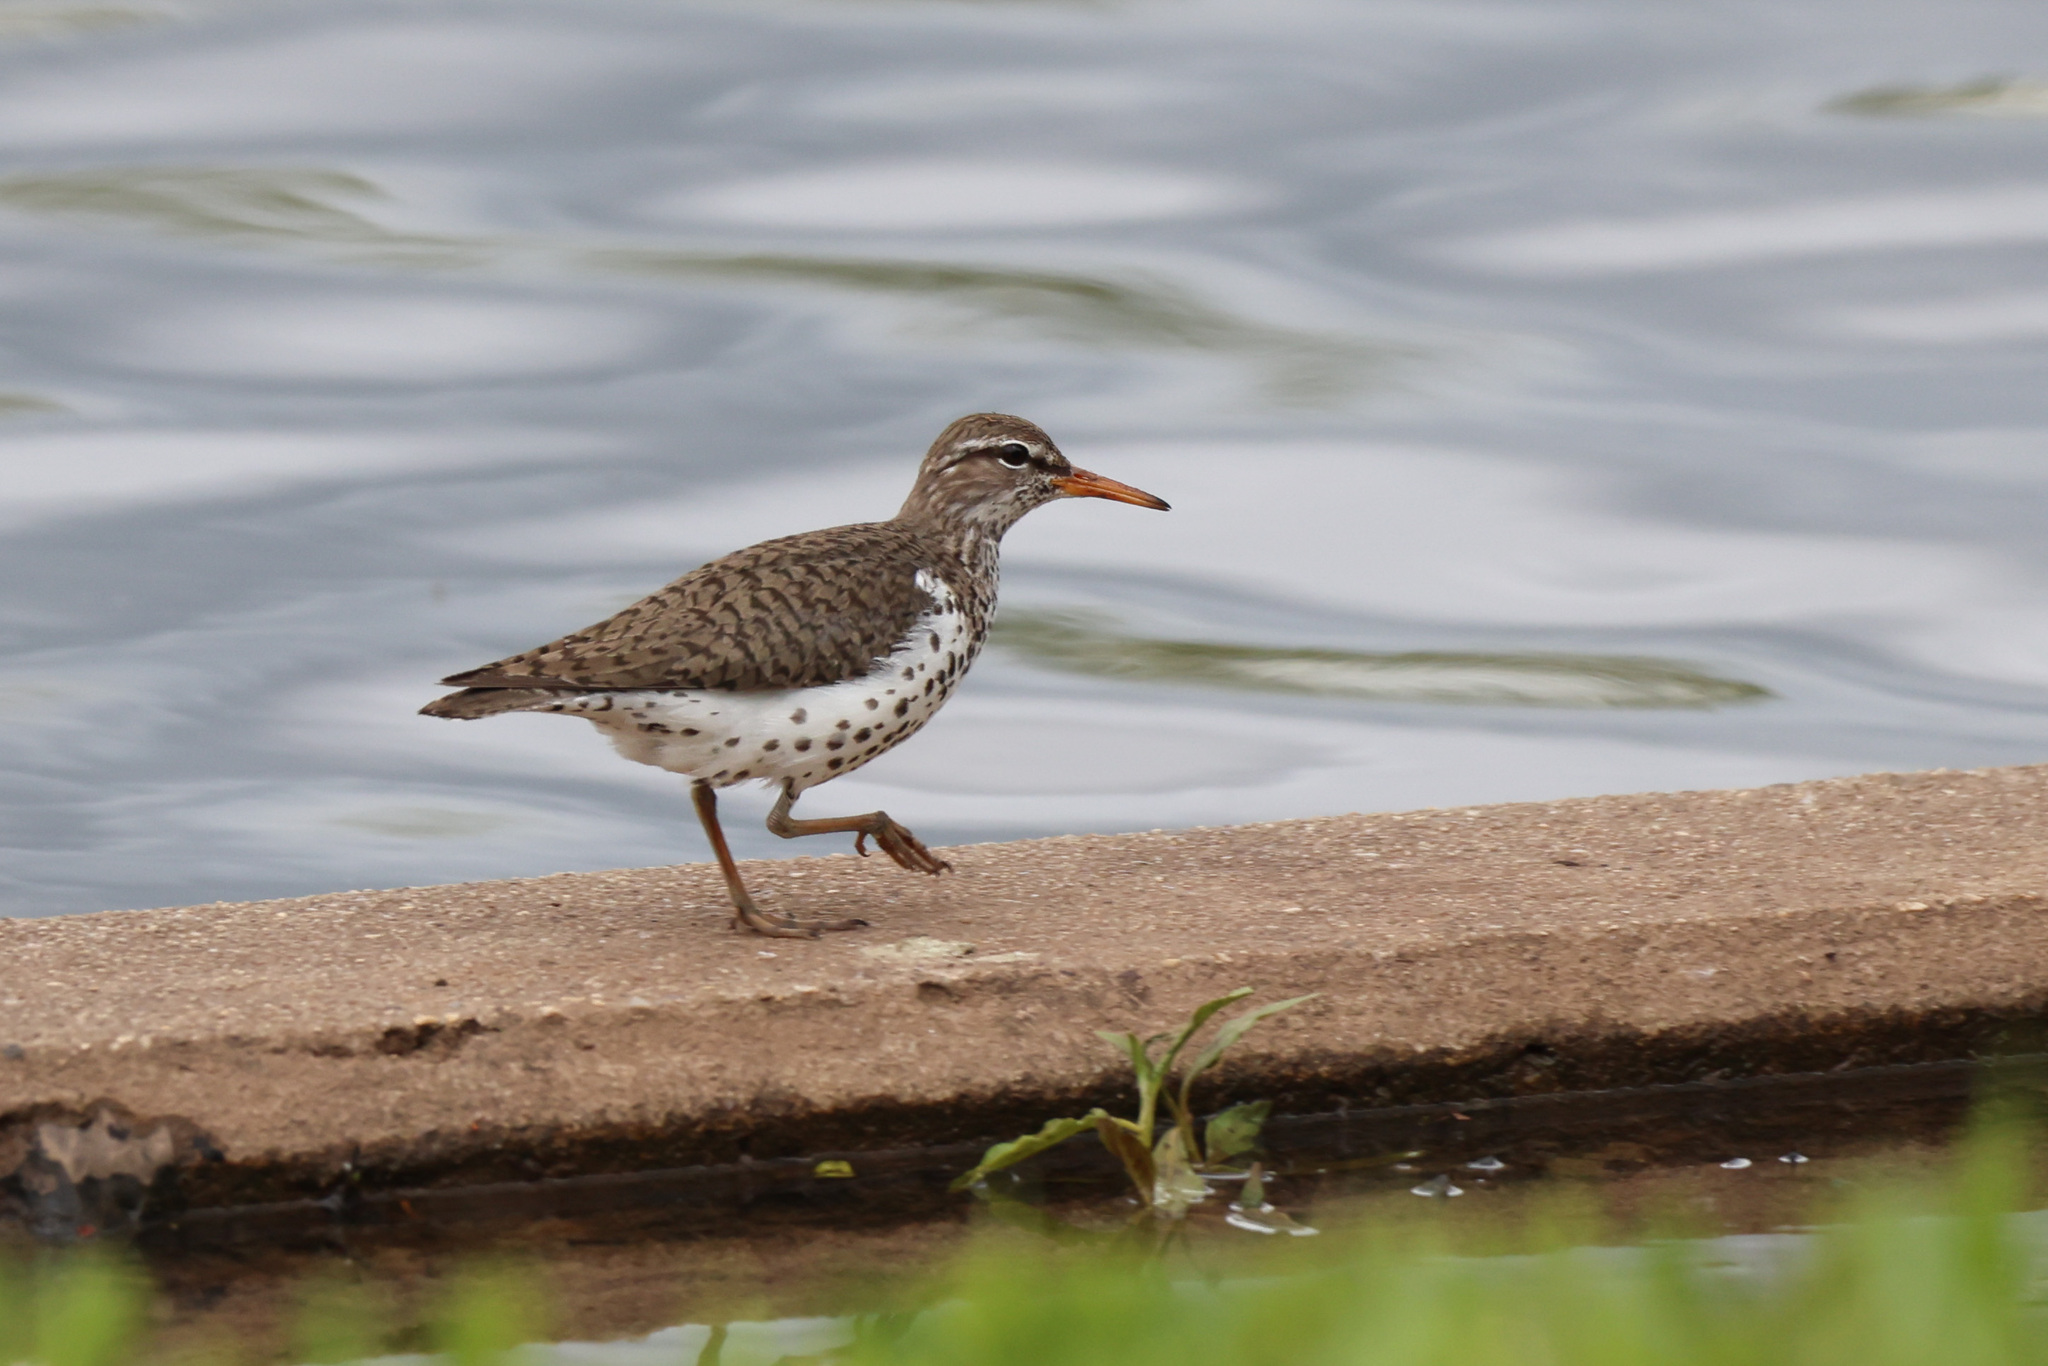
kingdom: Animalia
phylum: Chordata
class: Aves
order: Charadriiformes
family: Scolopacidae
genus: Actitis
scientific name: Actitis macularius
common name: Spotted sandpiper
